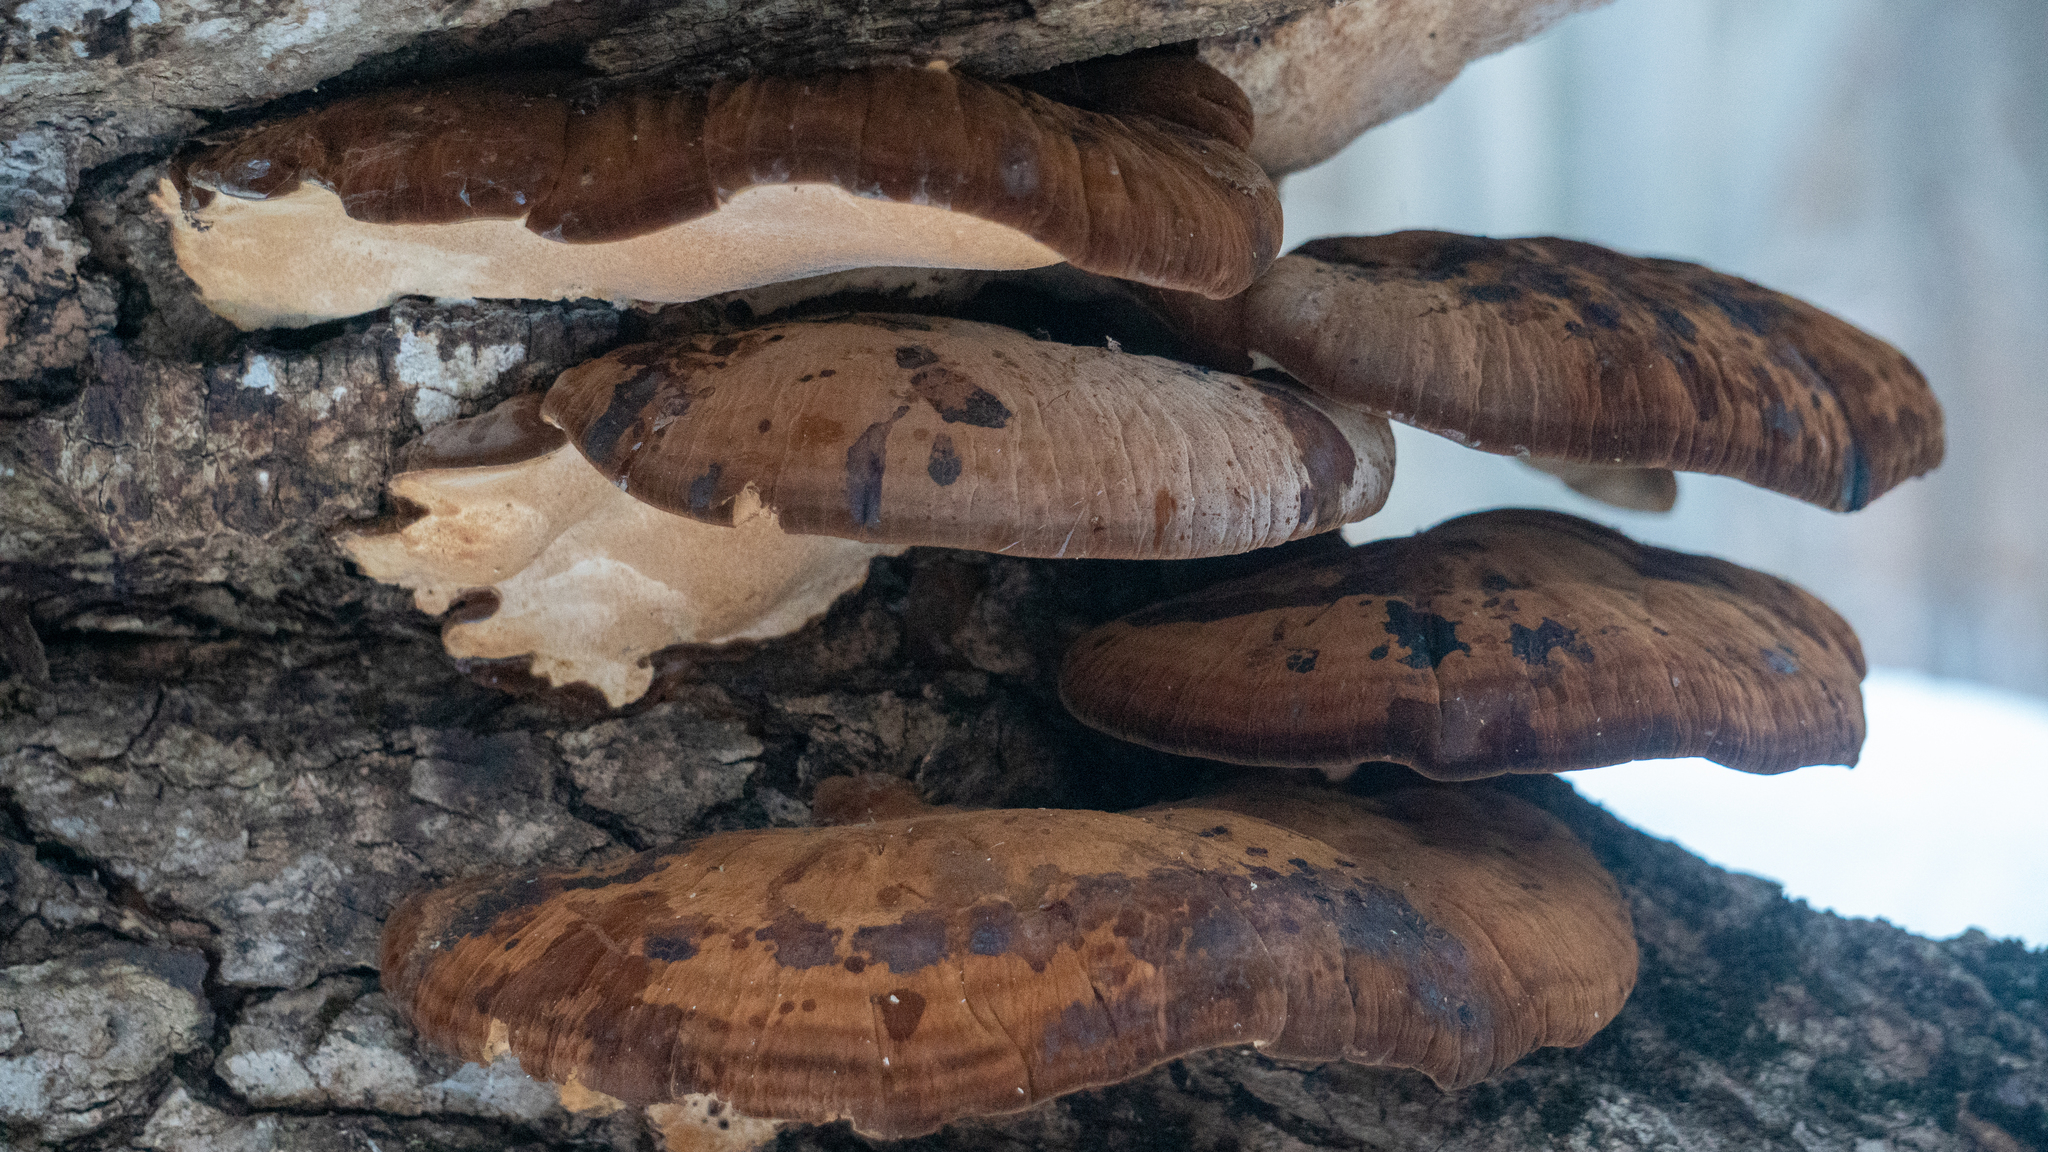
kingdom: Fungi
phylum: Basidiomycota
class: Agaricomycetes
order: Polyporales
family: Ischnodermataceae
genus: Ischnoderma
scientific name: Ischnoderma resinosum
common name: Resinous polypore
